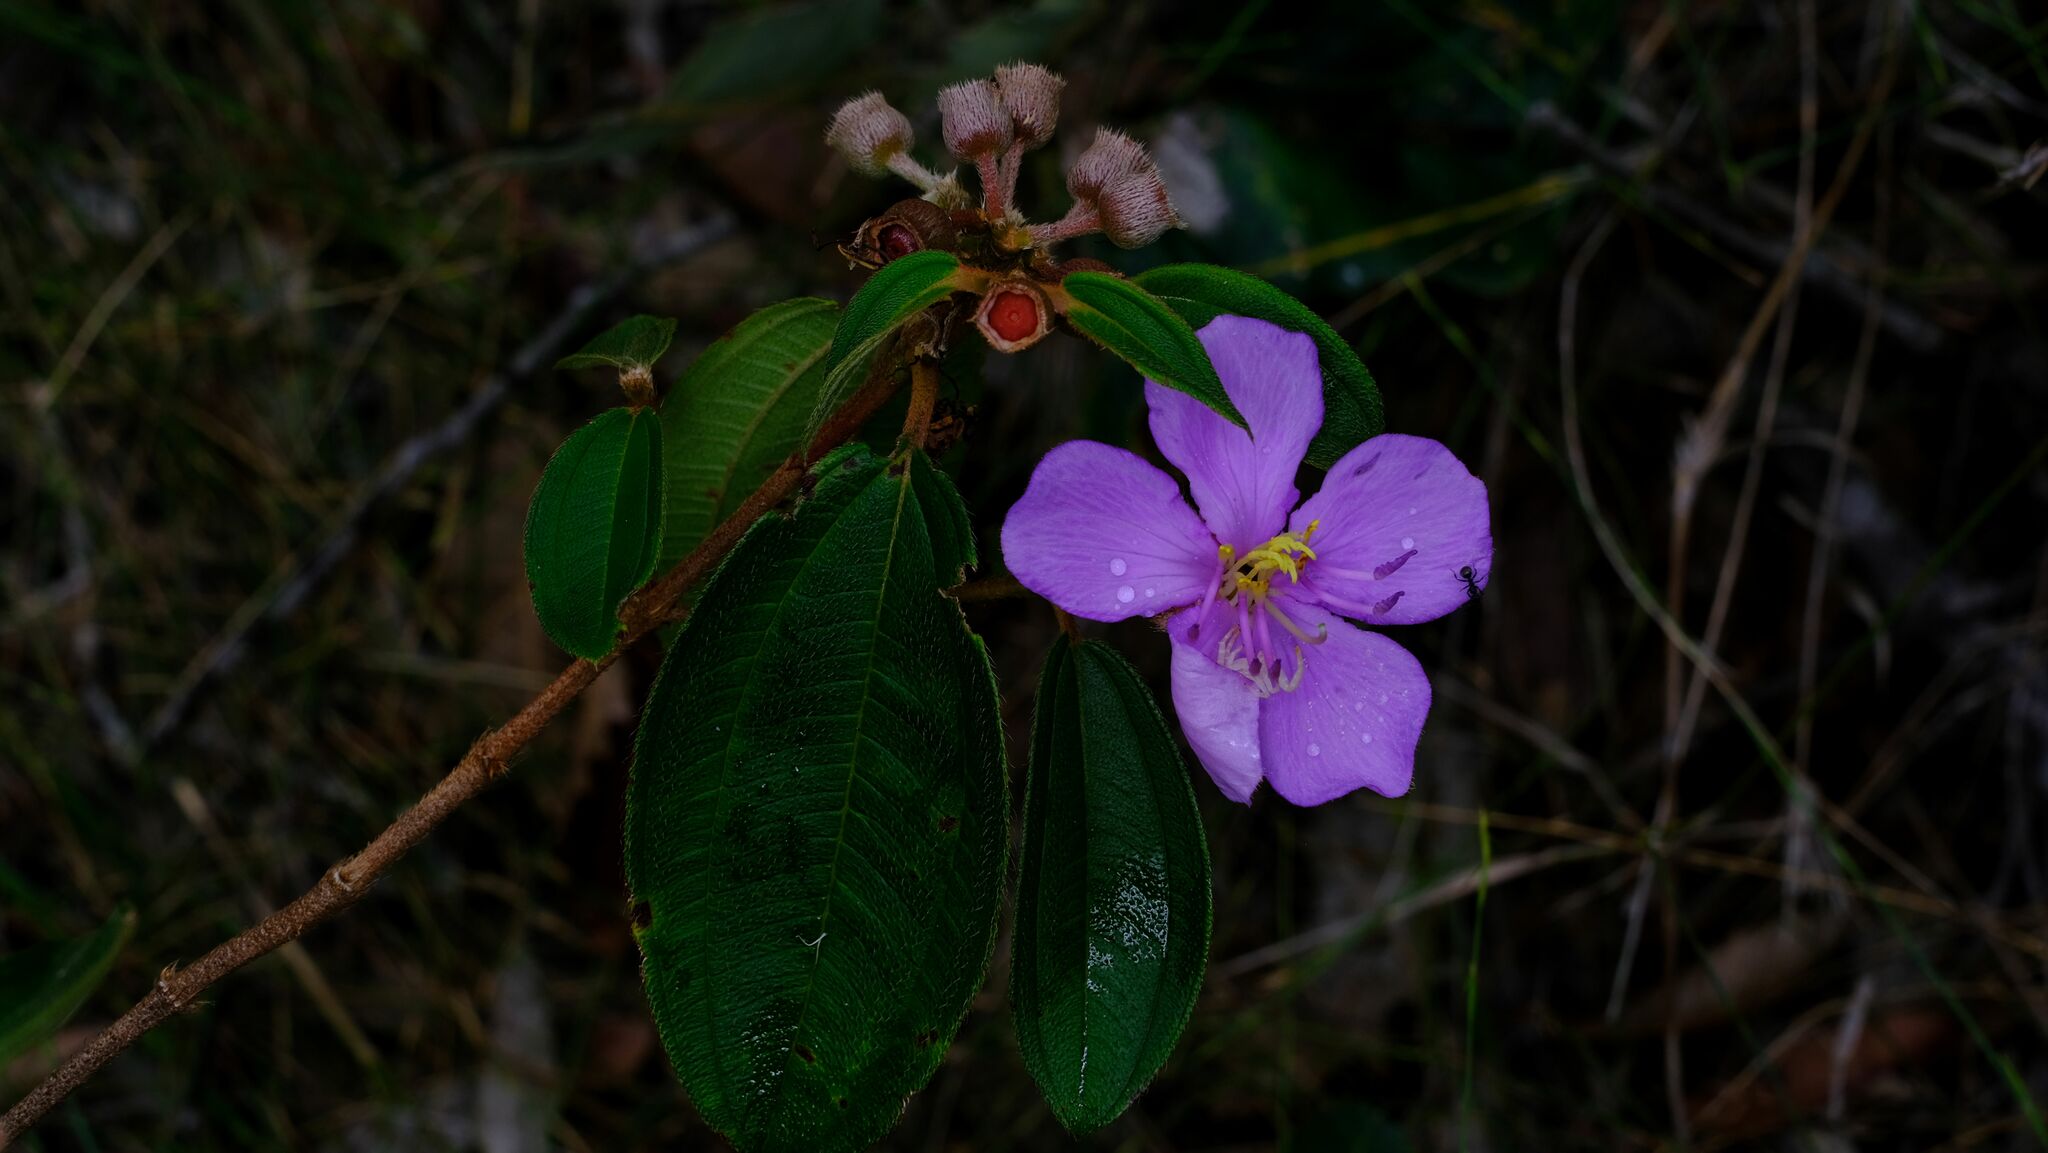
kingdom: Plantae
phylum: Tracheophyta
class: Magnoliopsida
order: Myrtales
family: Melastomataceae
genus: Melastoma
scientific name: Melastoma malabathricum
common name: Indian-rhododendron
